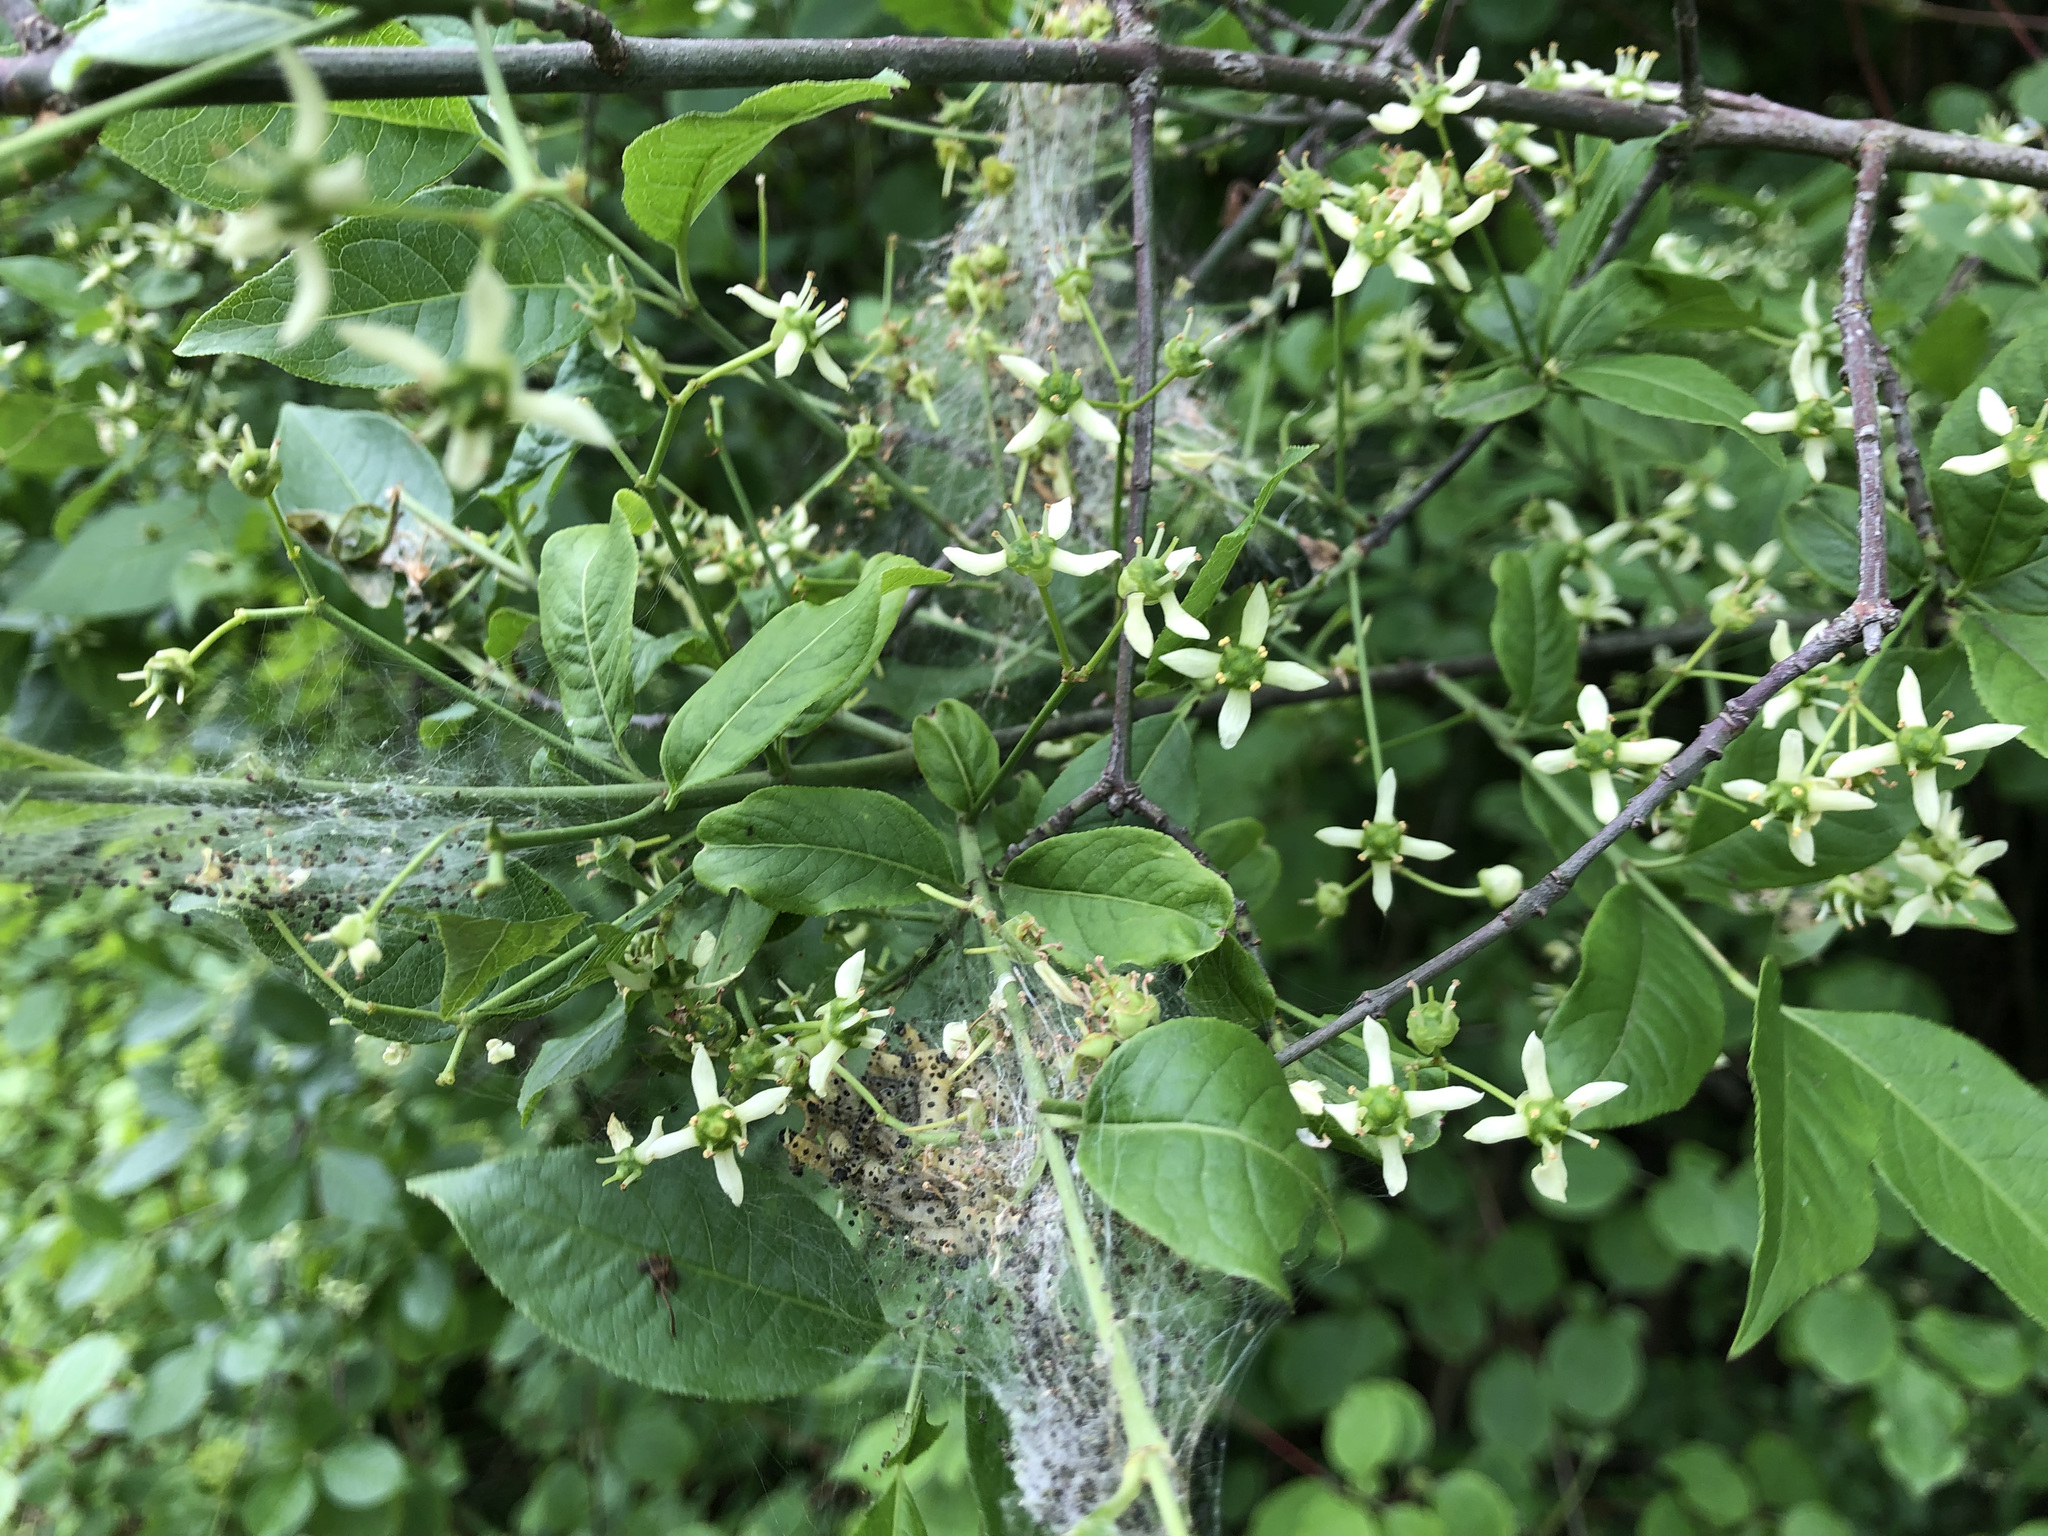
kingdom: Plantae
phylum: Tracheophyta
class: Magnoliopsida
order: Celastrales
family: Celastraceae
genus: Euonymus
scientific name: Euonymus europaeus
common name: Spindle
